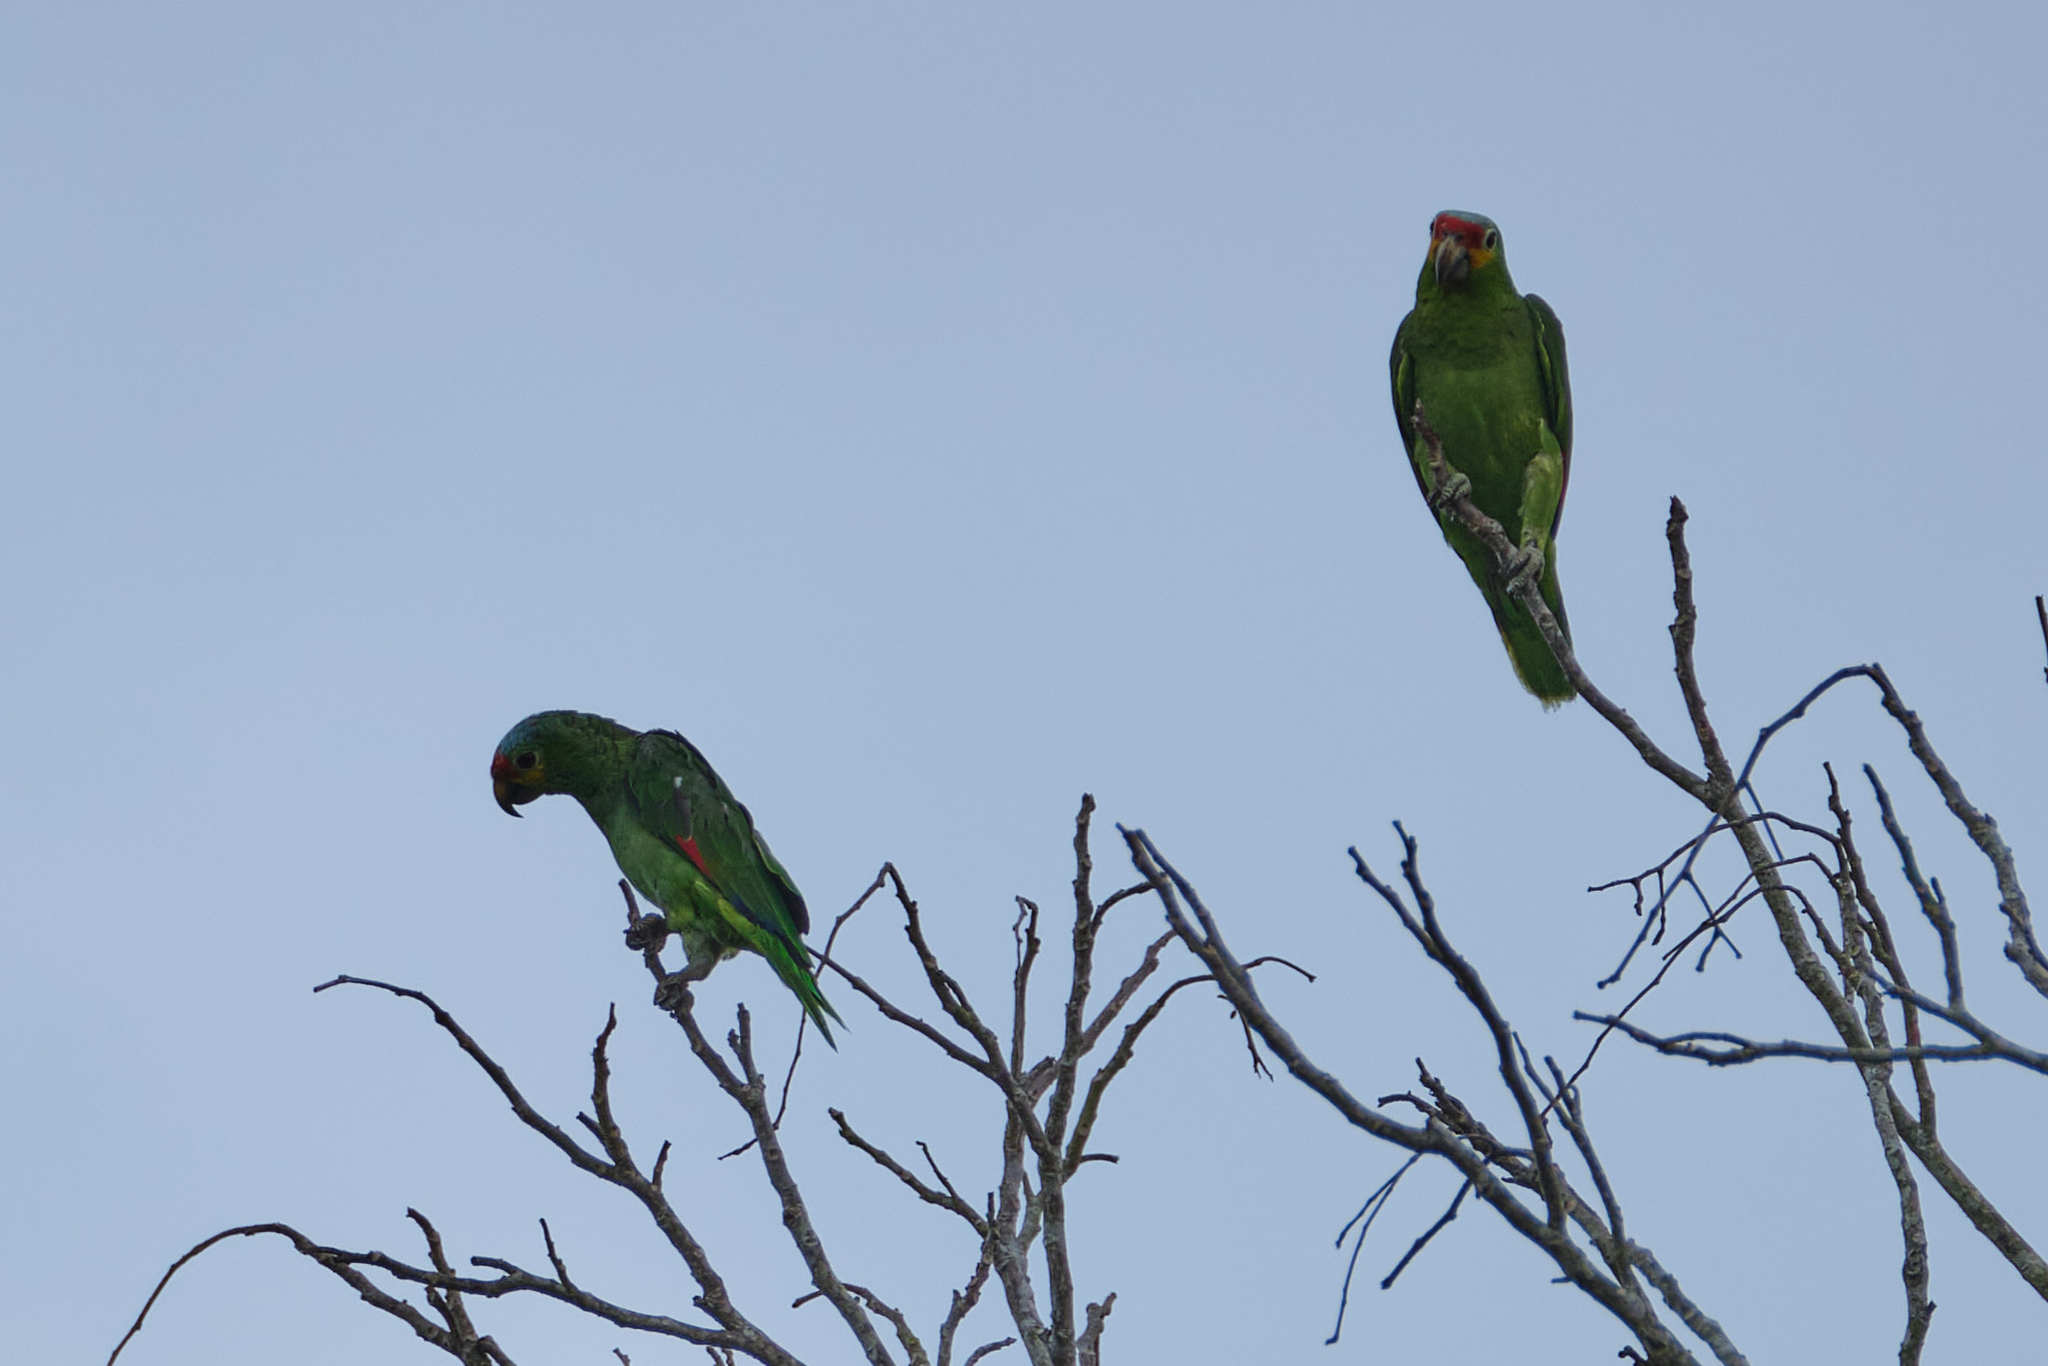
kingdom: Animalia
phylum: Chordata
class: Aves
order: Psittaciformes
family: Psittacidae
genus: Amazona
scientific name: Amazona autumnalis
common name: Red-lored amazon
